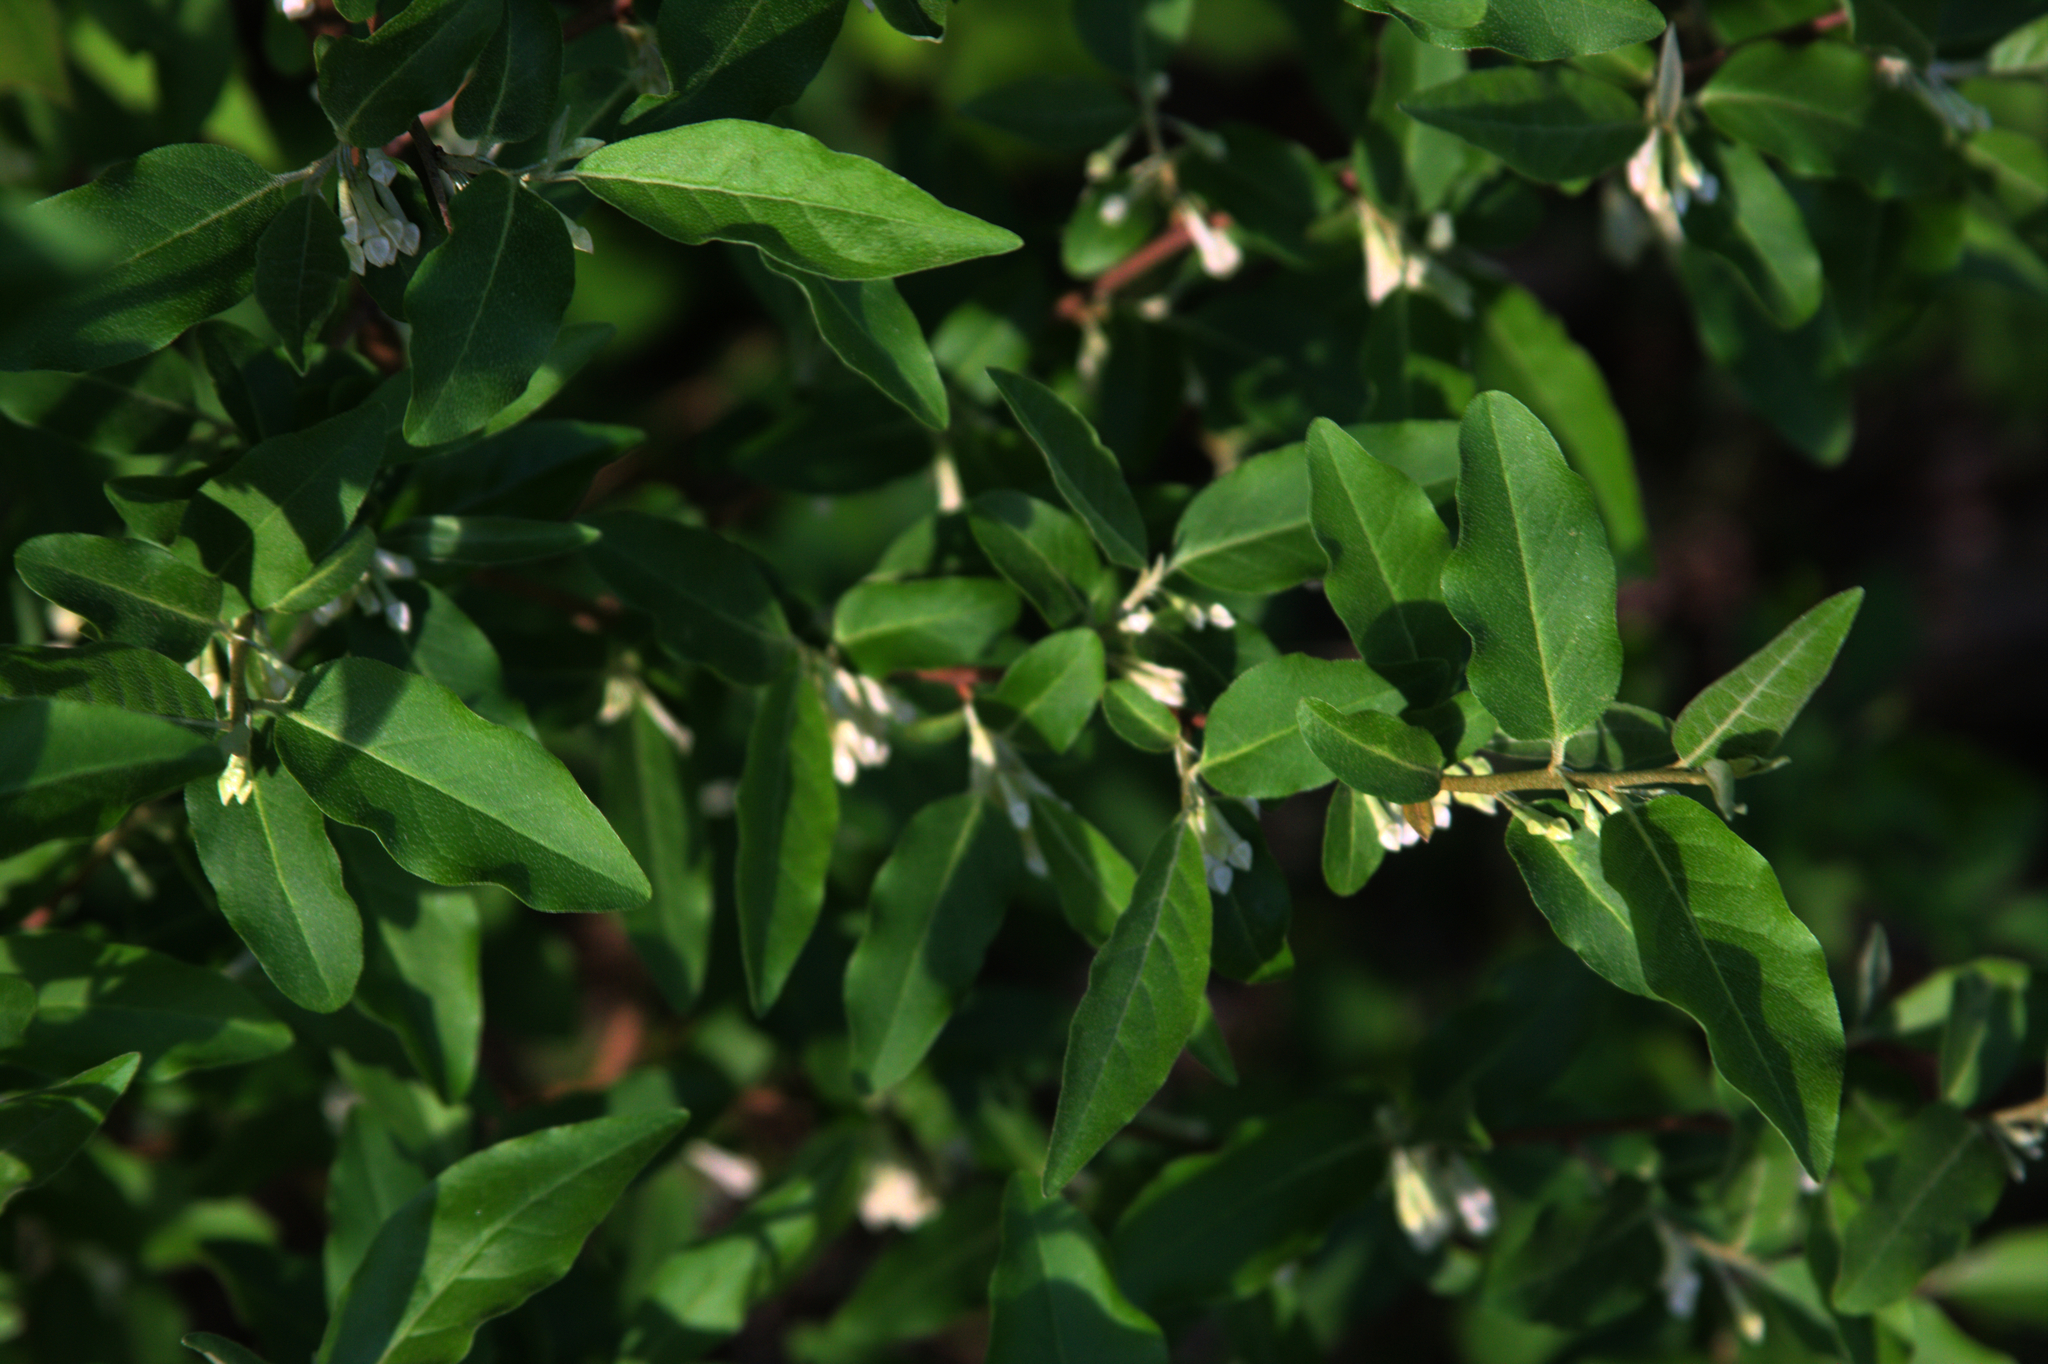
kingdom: Plantae
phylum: Tracheophyta
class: Magnoliopsida
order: Rosales
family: Elaeagnaceae
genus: Elaeagnus
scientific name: Elaeagnus umbellata
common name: Autumn olive
